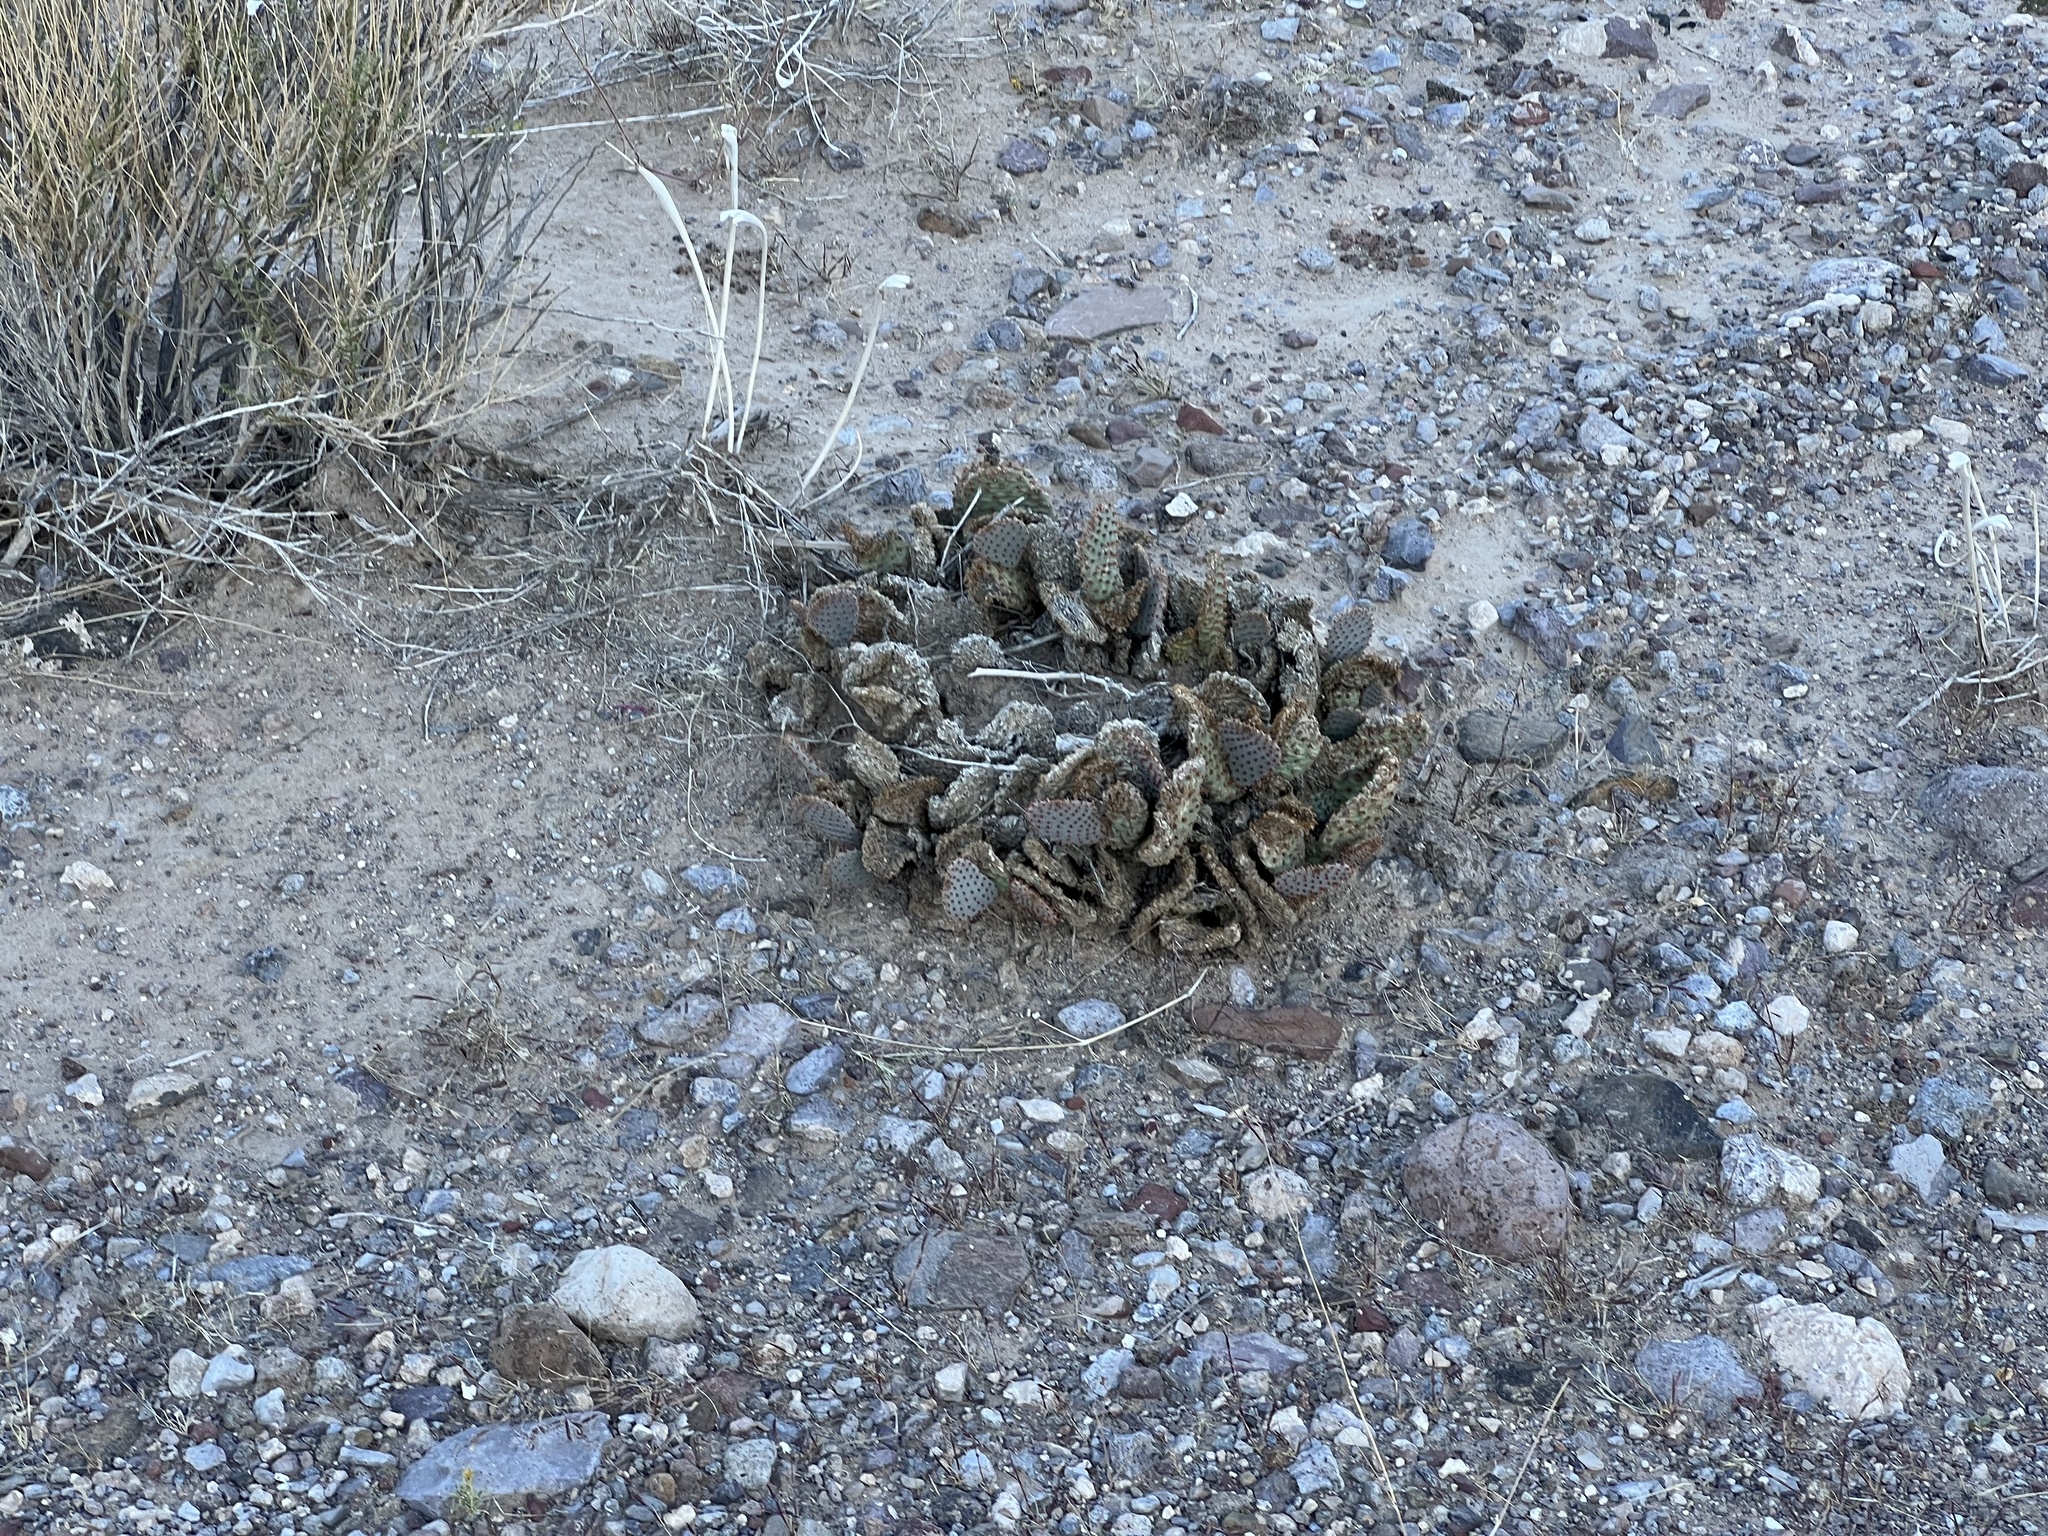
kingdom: Plantae
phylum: Tracheophyta
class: Magnoliopsida
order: Caryophyllales
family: Cactaceae
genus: Opuntia
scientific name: Opuntia basilaris
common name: Beavertail prickly-pear
